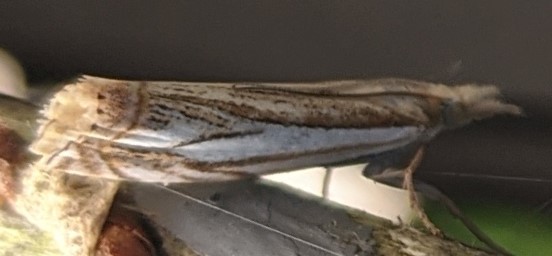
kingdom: Animalia
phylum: Arthropoda
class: Insecta
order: Lepidoptera
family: Crambidae
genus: Crambus
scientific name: Crambus saltuellus
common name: Pasture grass-veneer
